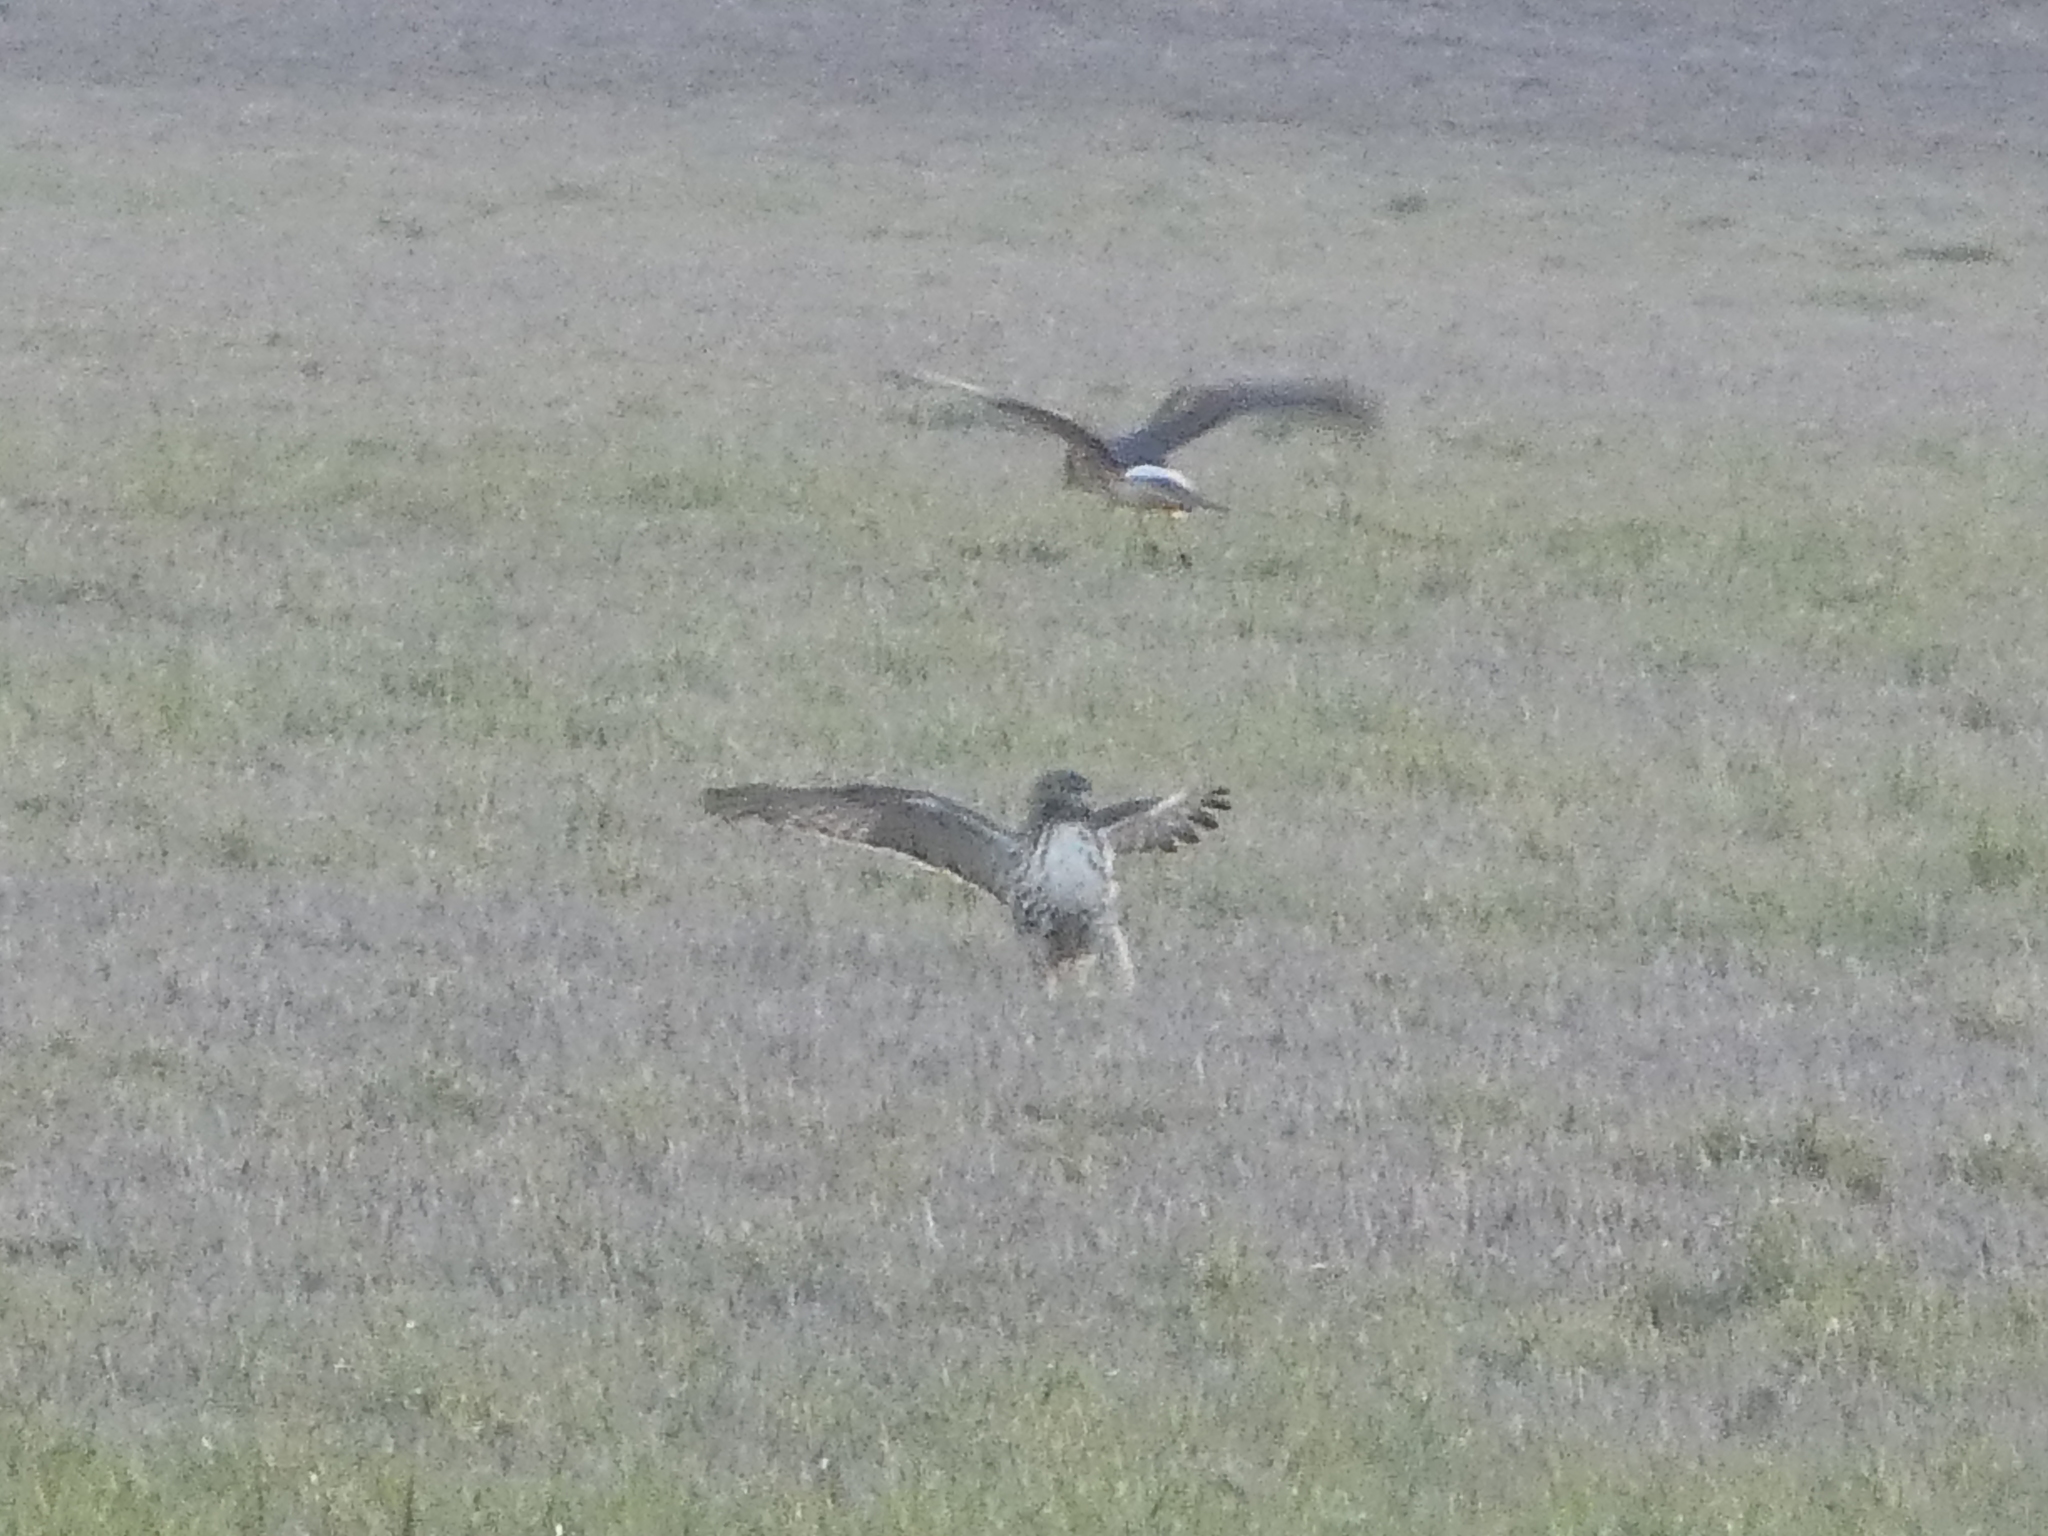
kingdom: Animalia
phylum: Chordata
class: Aves
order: Accipitriformes
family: Accipitridae
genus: Buteo
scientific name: Buteo jamaicensis
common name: Red-tailed hawk
